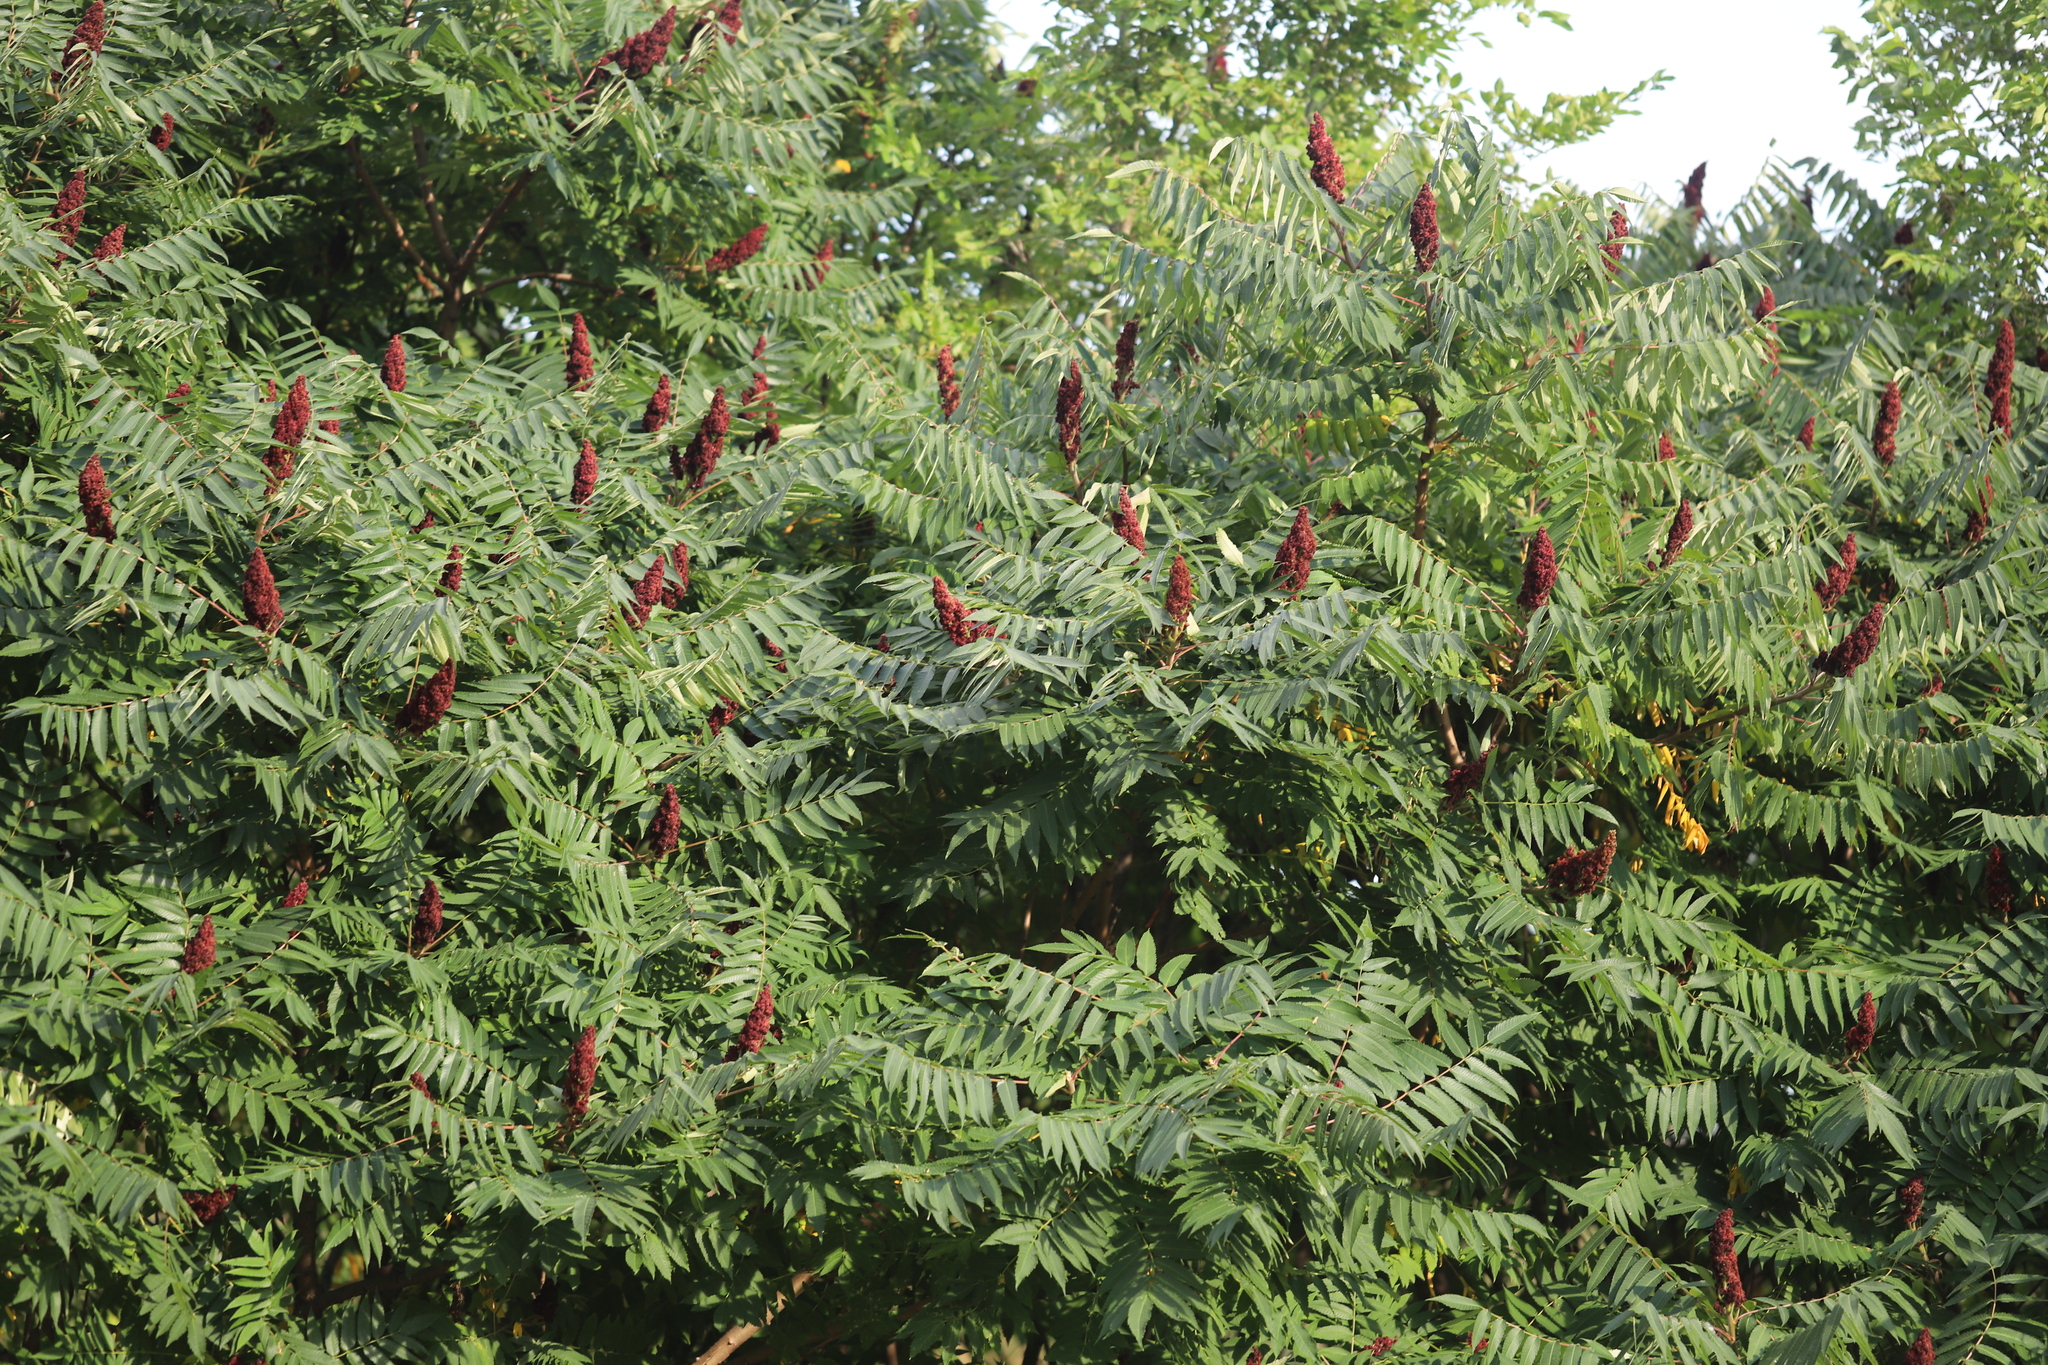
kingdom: Plantae
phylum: Tracheophyta
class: Magnoliopsida
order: Sapindales
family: Anacardiaceae
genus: Rhus
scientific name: Rhus glabra
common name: Scarlet sumac
